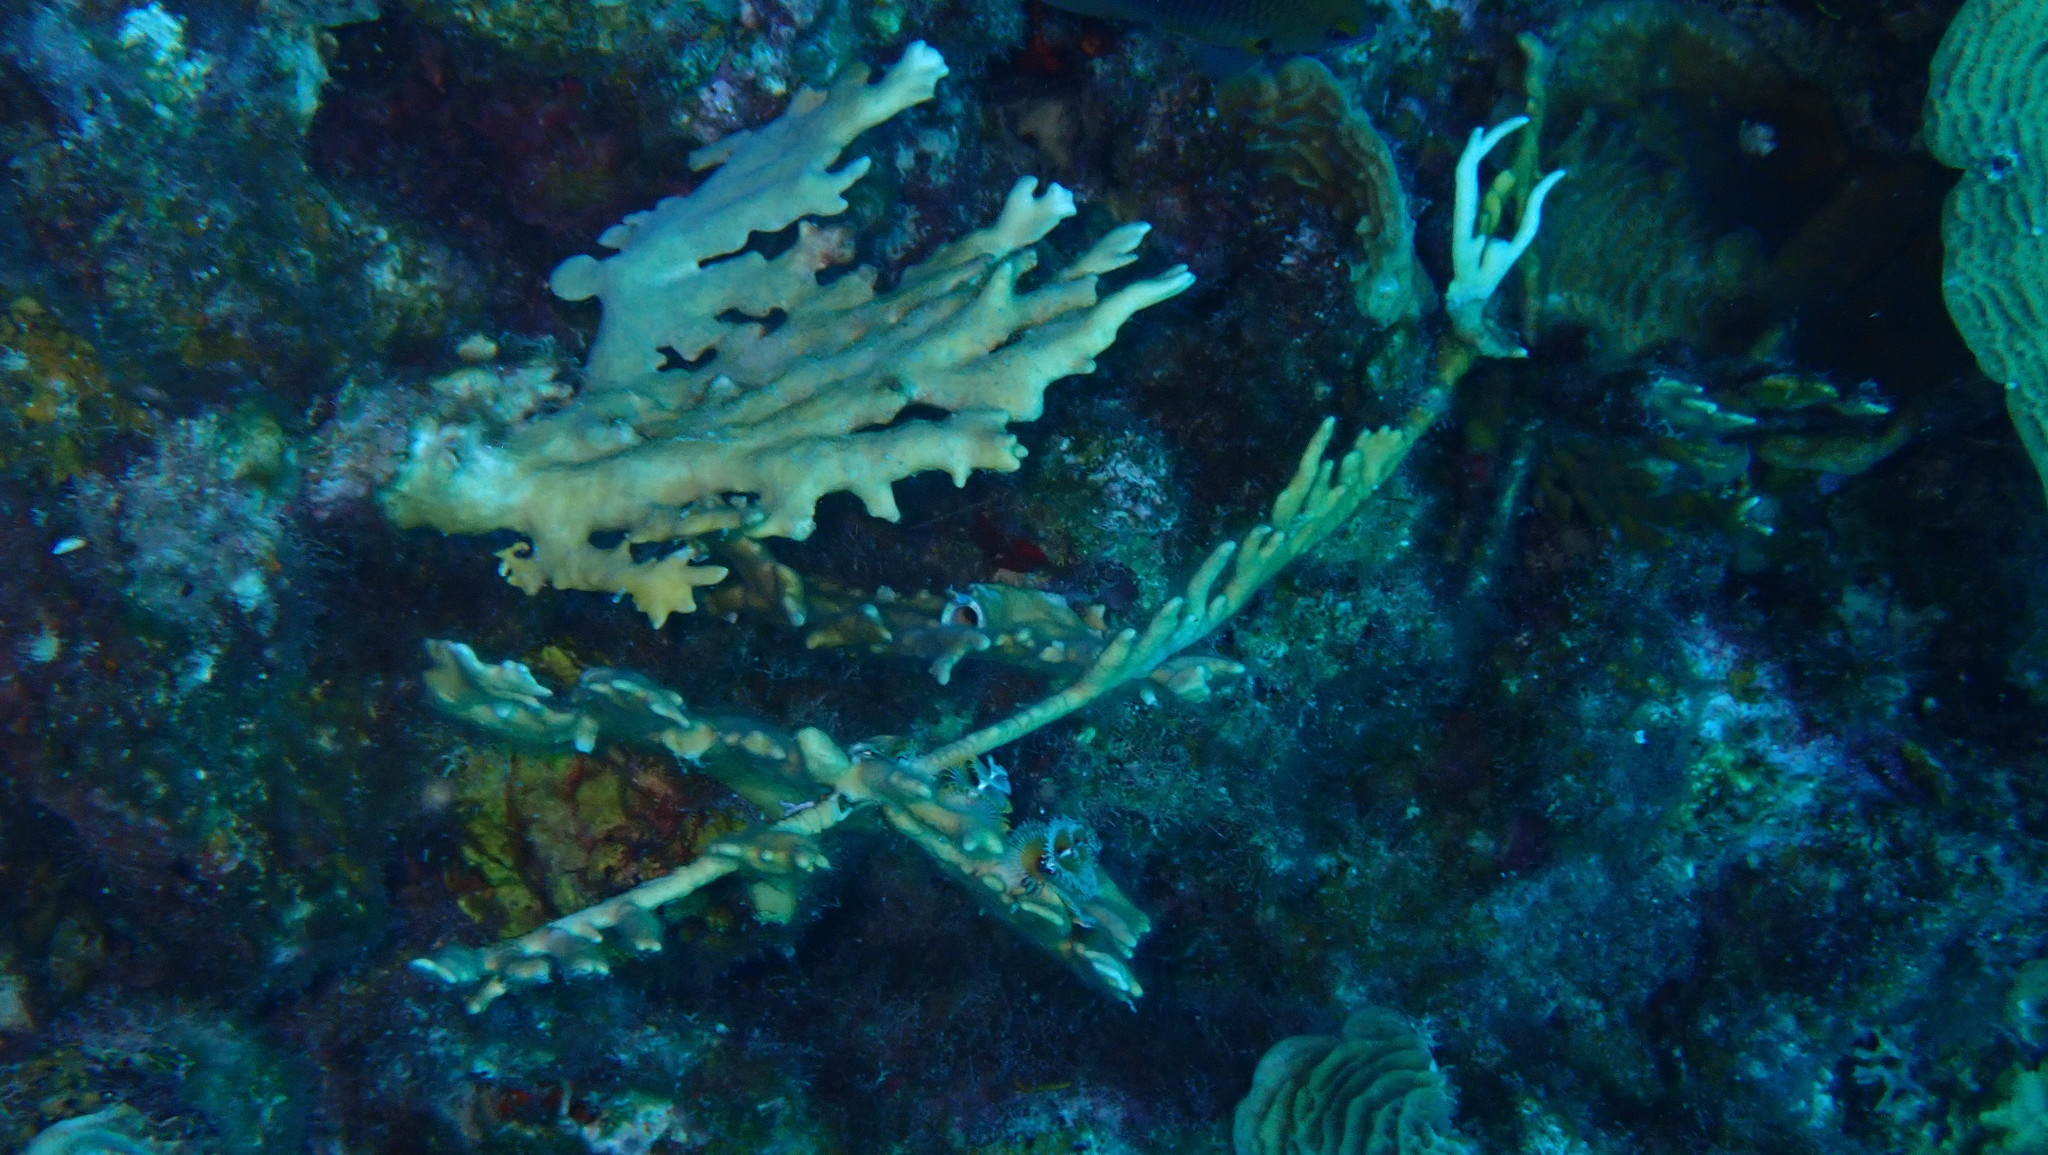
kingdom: Animalia
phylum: Cnidaria
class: Hydrozoa
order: Anthoathecata
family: Milleporidae
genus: Millepora
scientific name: Millepora alcicornis
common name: Branching fire coral
